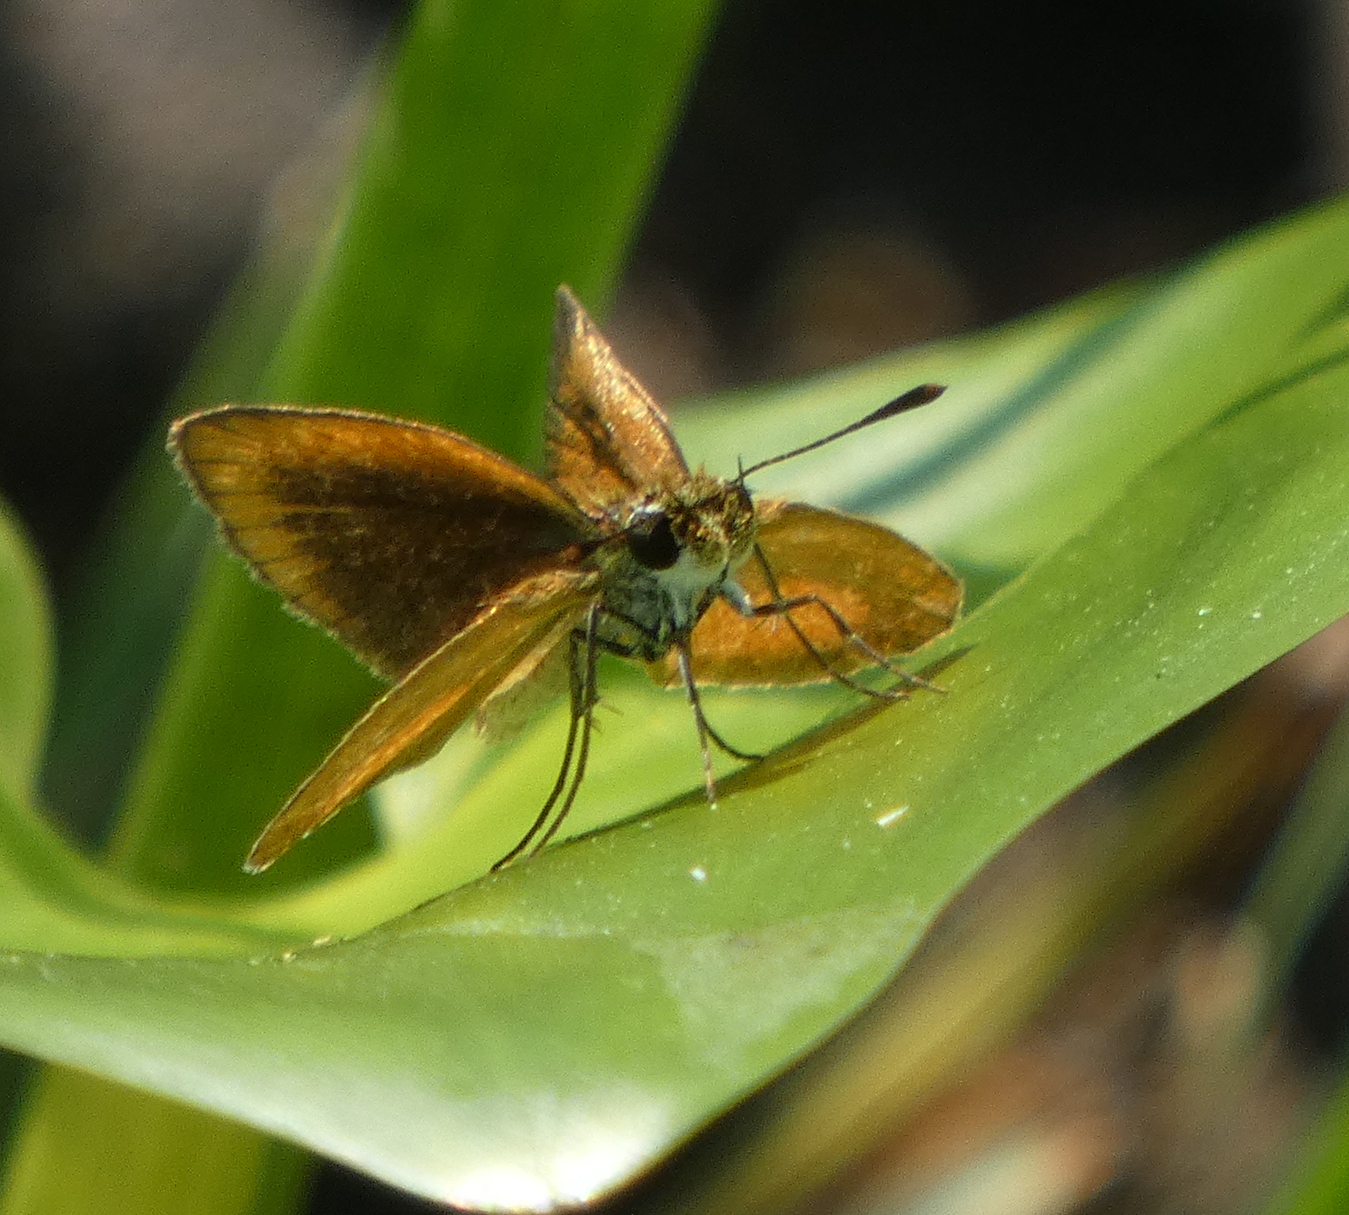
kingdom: Animalia
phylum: Arthropoda
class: Insecta
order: Lepidoptera
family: Hesperiidae
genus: Ancyloxypha
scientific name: Ancyloxypha numitor
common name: Least skipper
